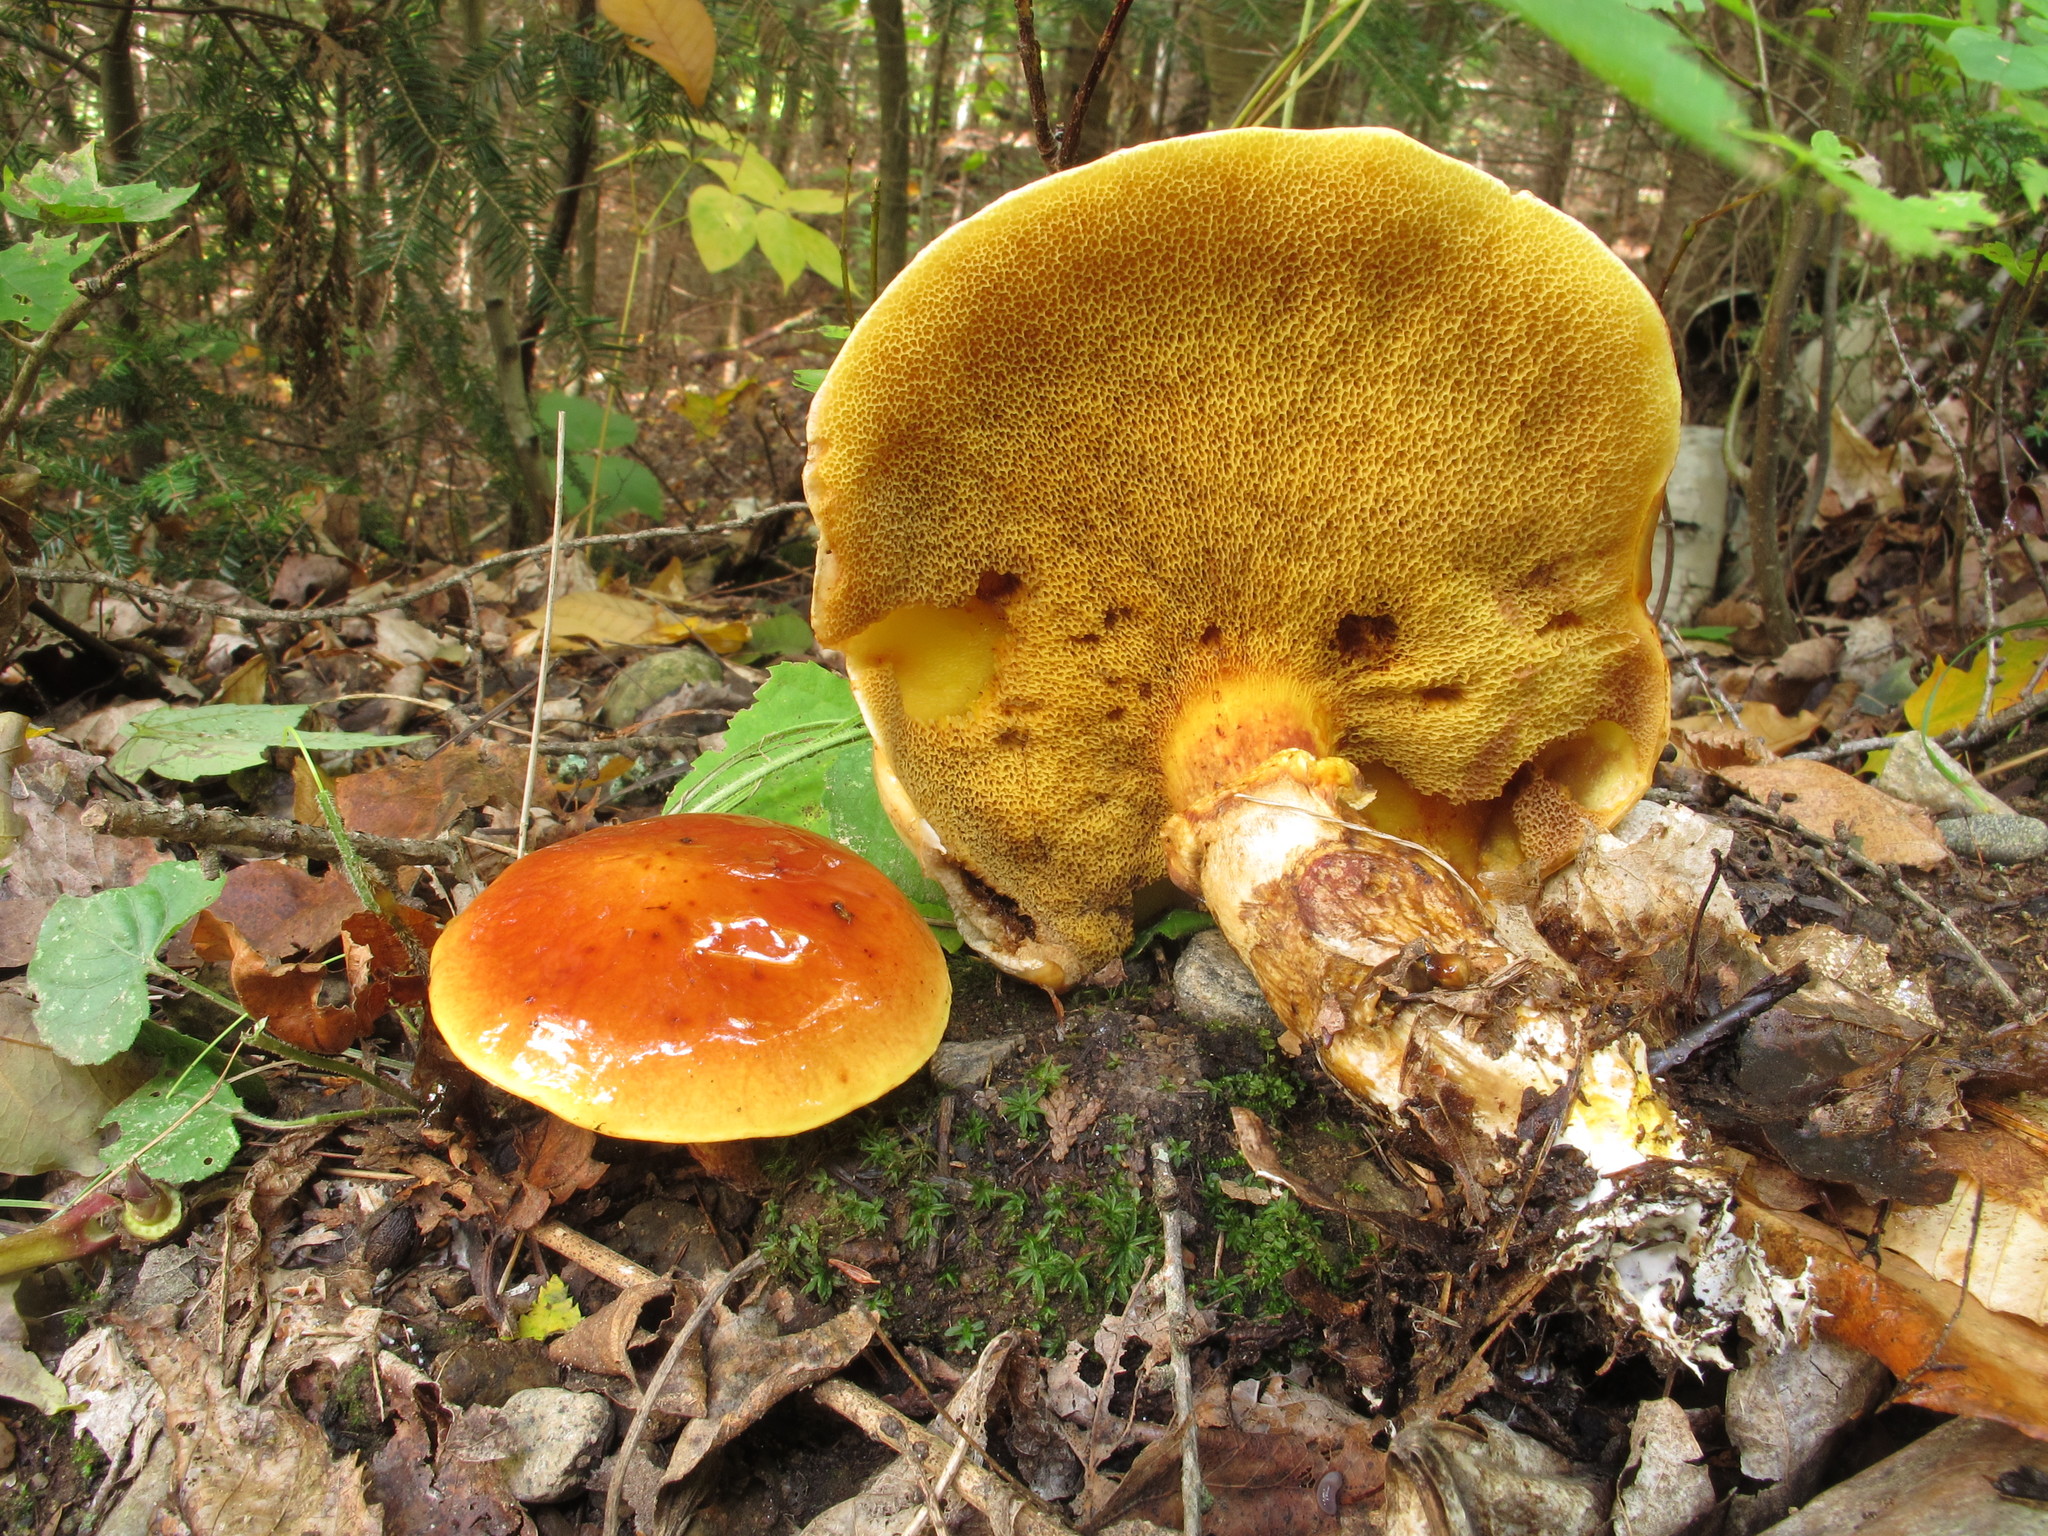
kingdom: Fungi
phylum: Basidiomycota
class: Agaricomycetes
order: Boletales
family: Suillaceae
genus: Suillus
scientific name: Suillus grevillei
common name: Larch bolete
